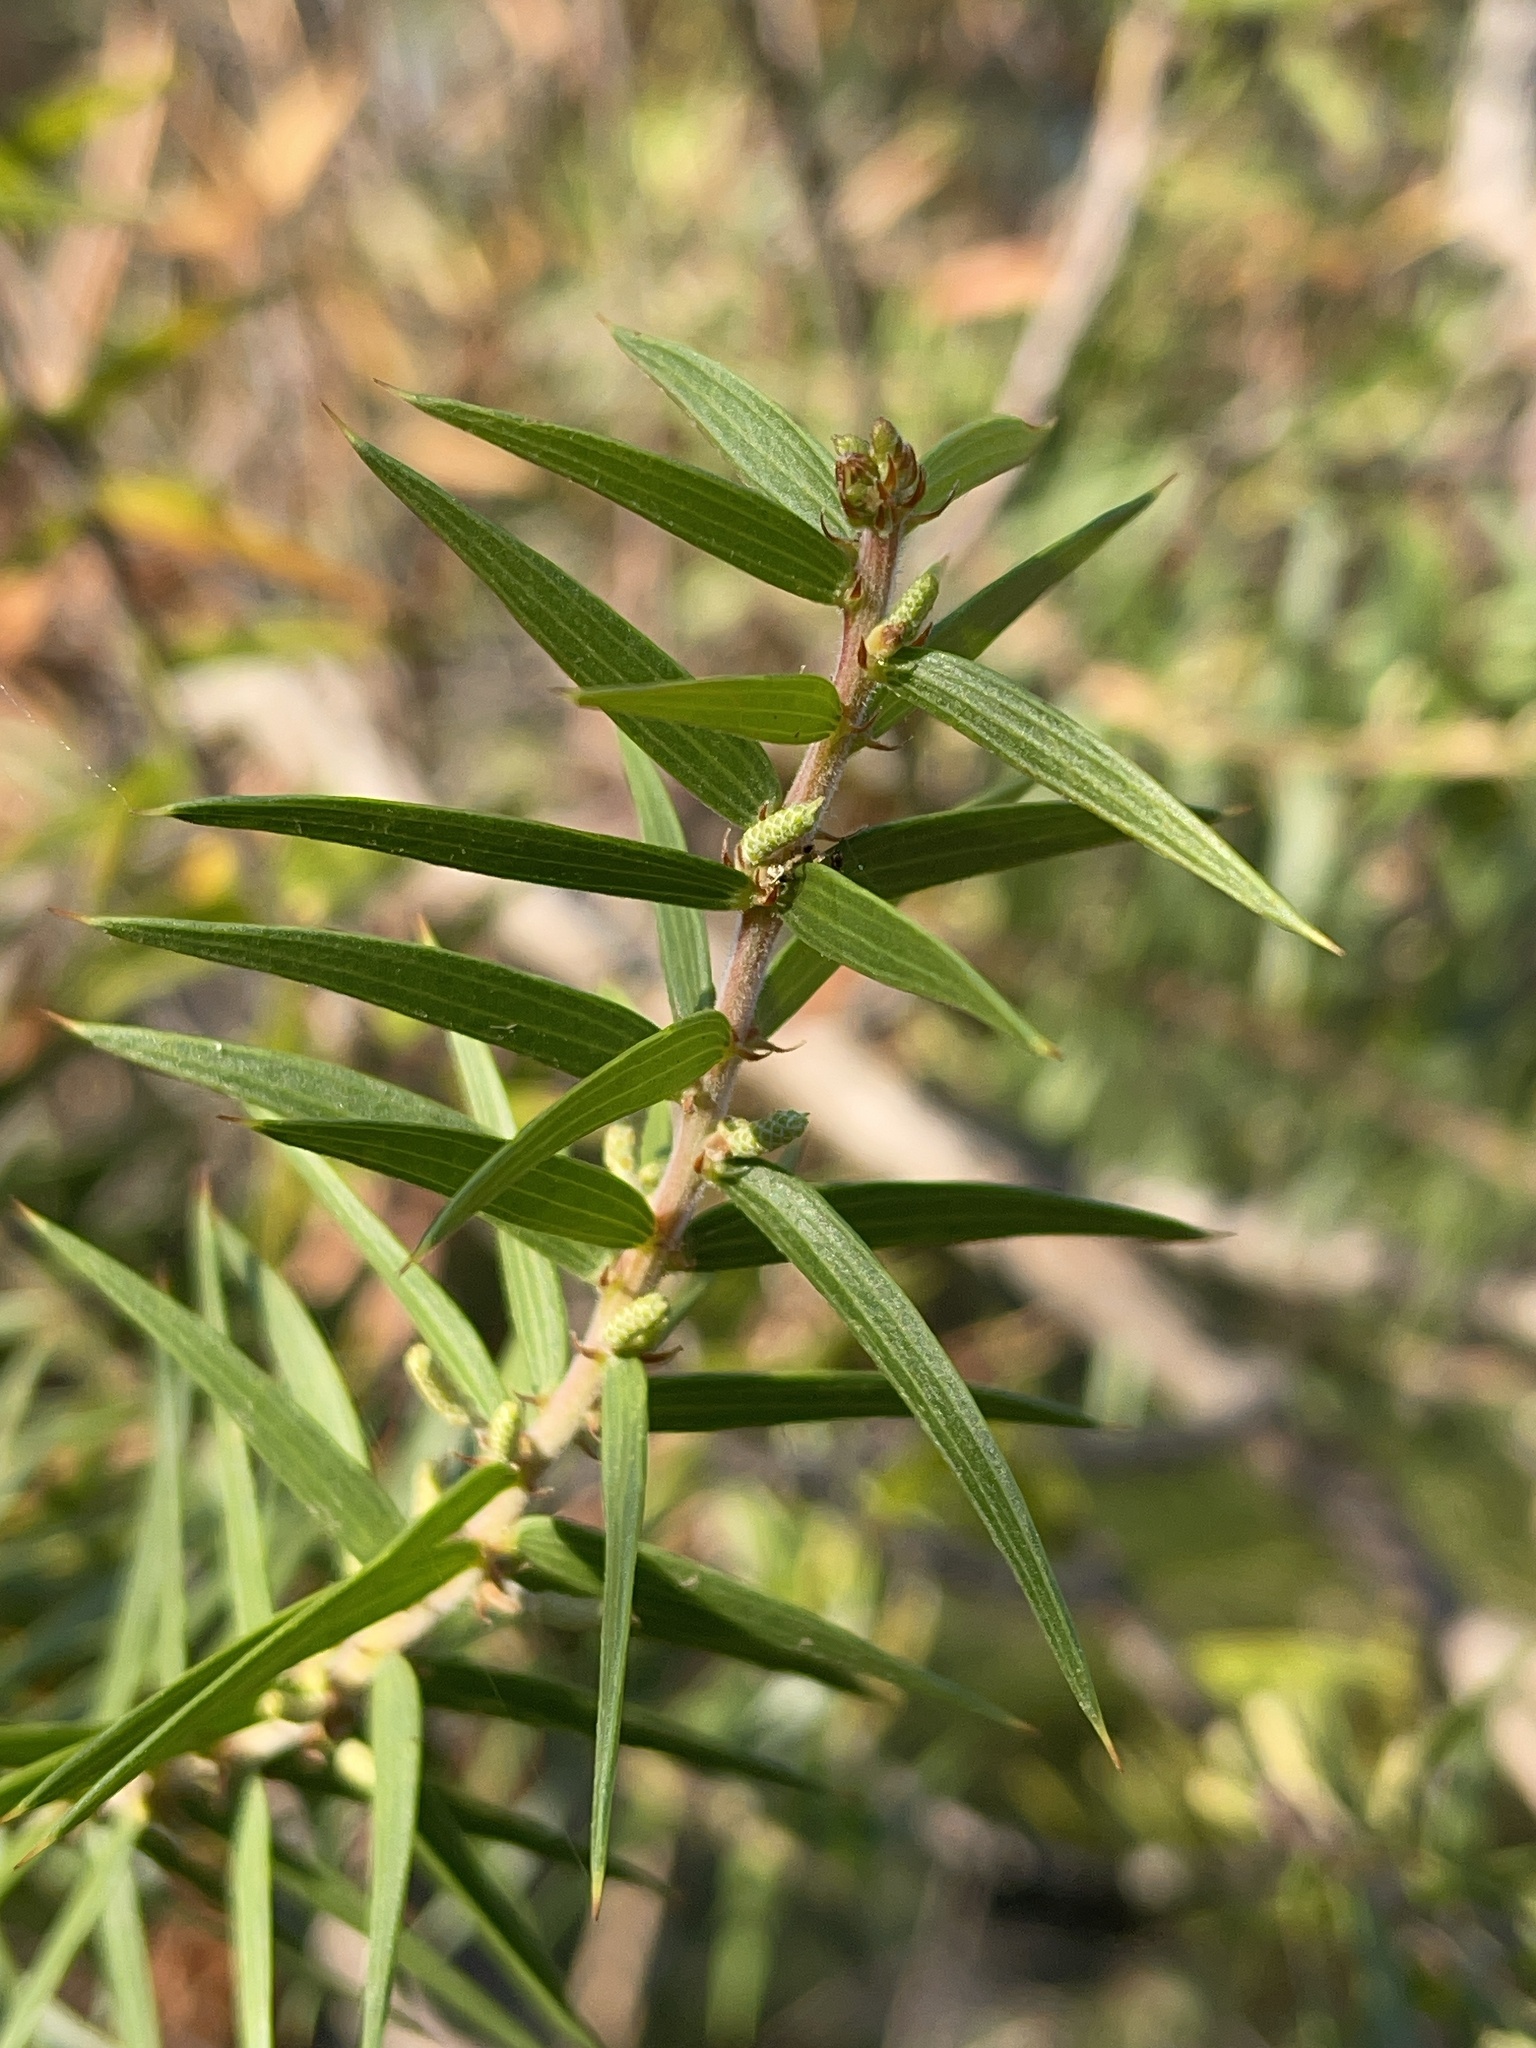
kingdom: Plantae
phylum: Tracheophyta
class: Magnoliopsida
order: Fabales
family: Fabaceae
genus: Acacia
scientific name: Acacia oxycedrus
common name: Spike wattle
